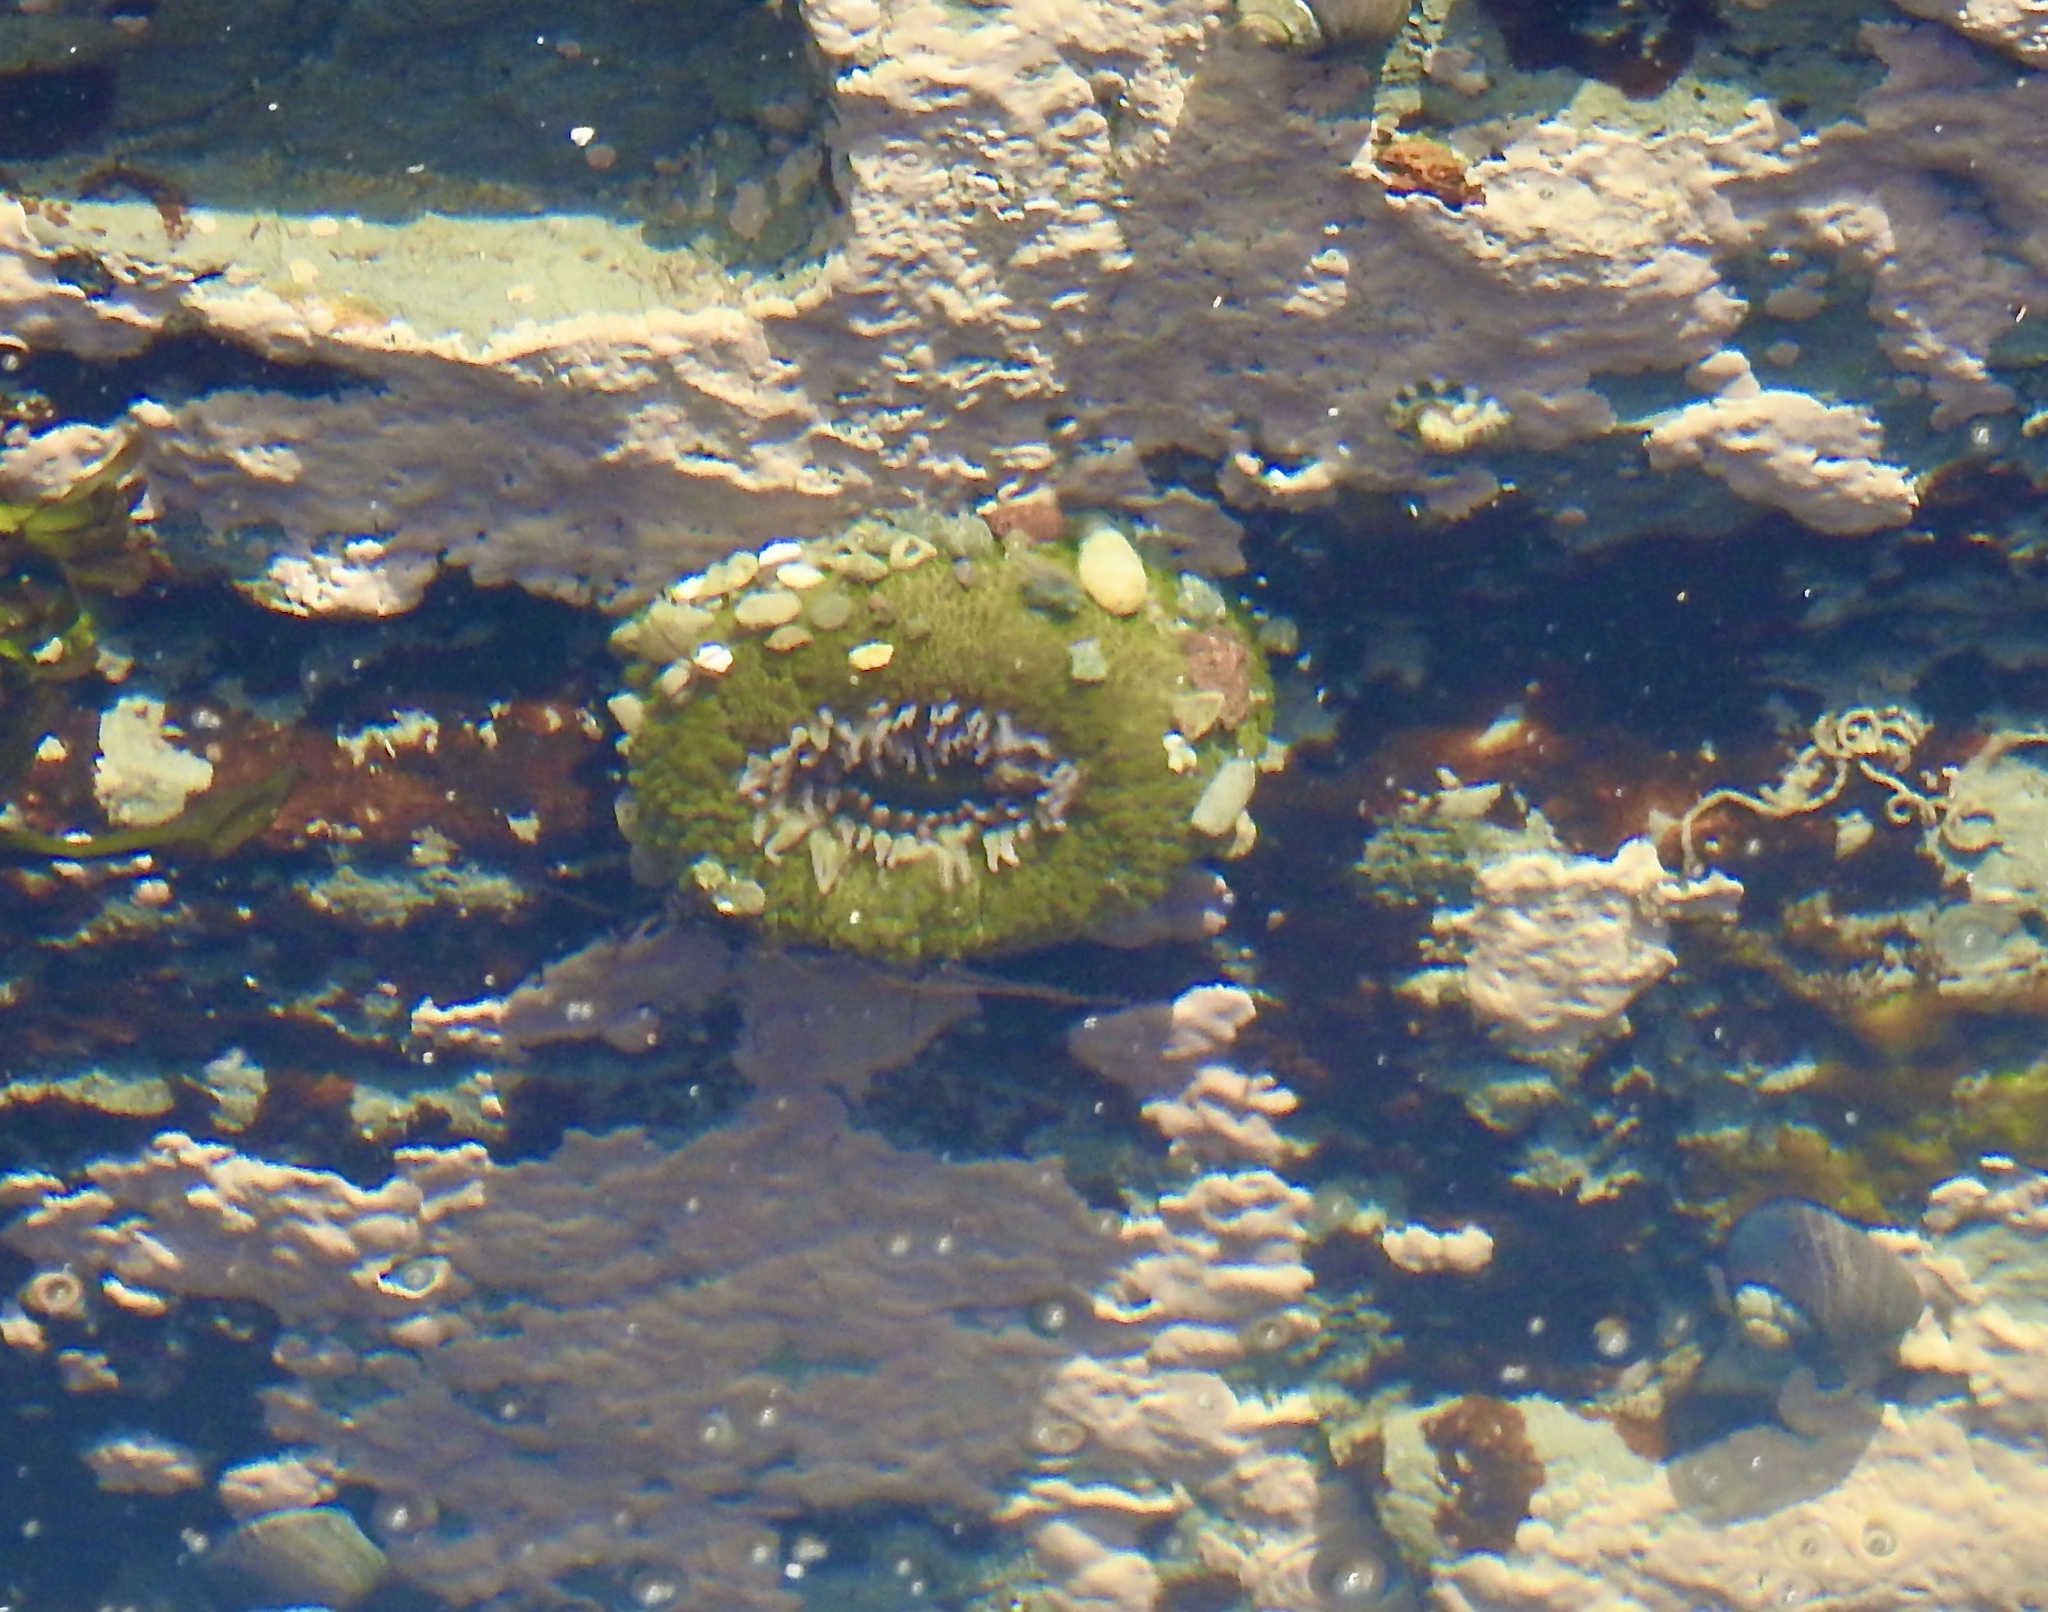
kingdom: Animalia
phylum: Cnidaria
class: Anthozoa
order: Actiniaria
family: Actiniidae
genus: Anthopleura
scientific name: Anthopleura elegantissima
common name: Clonal anemone
